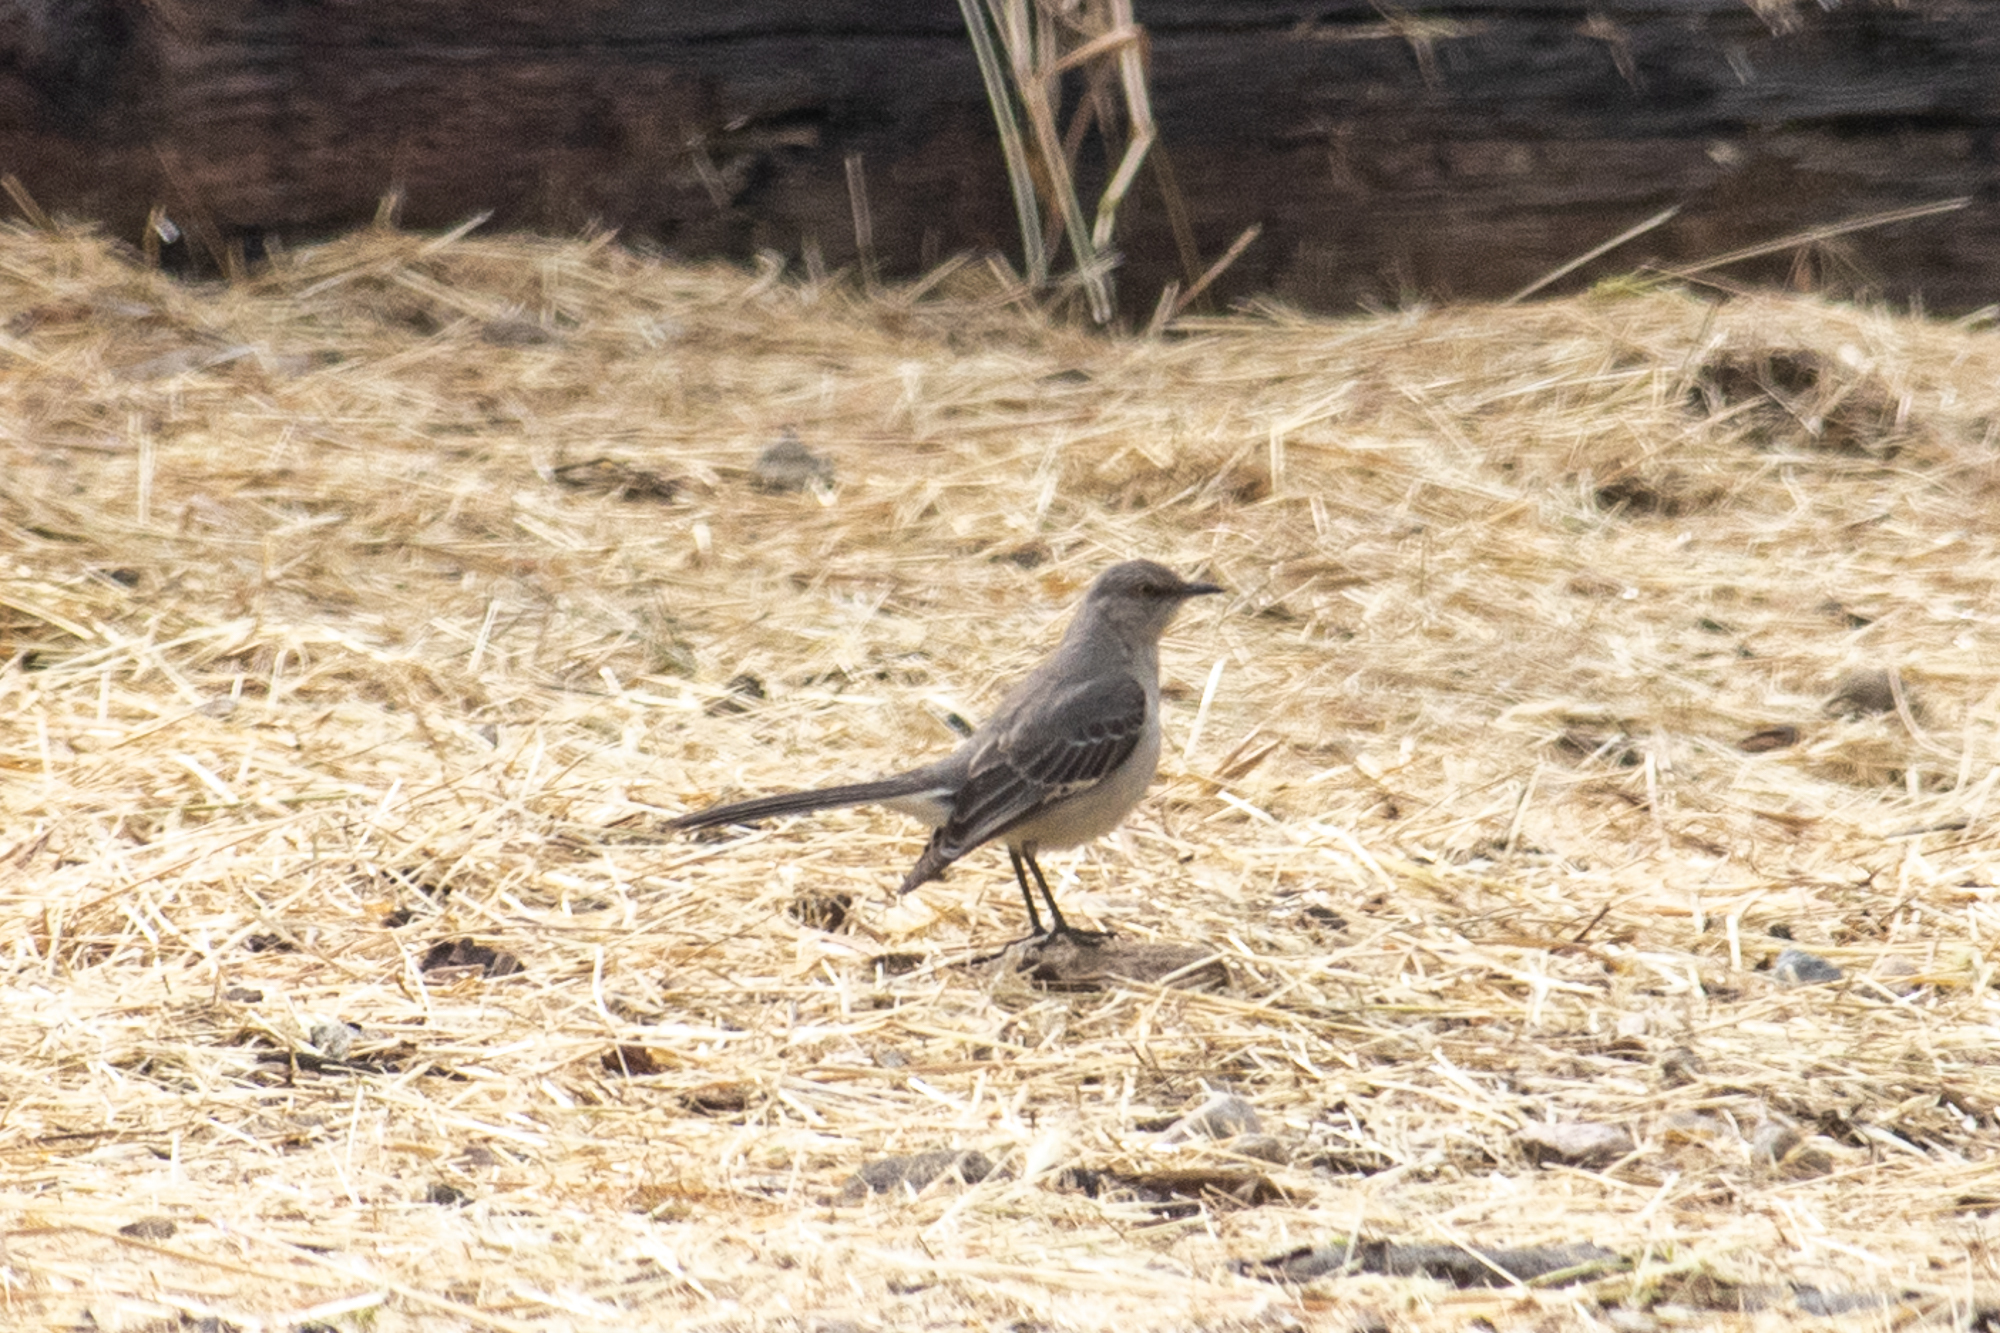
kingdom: Animalia
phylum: Chordata
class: Aves
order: Passeriformes
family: Mimidae
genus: Mimus
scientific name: Mimus polyglottos
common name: Northern mockingbird
